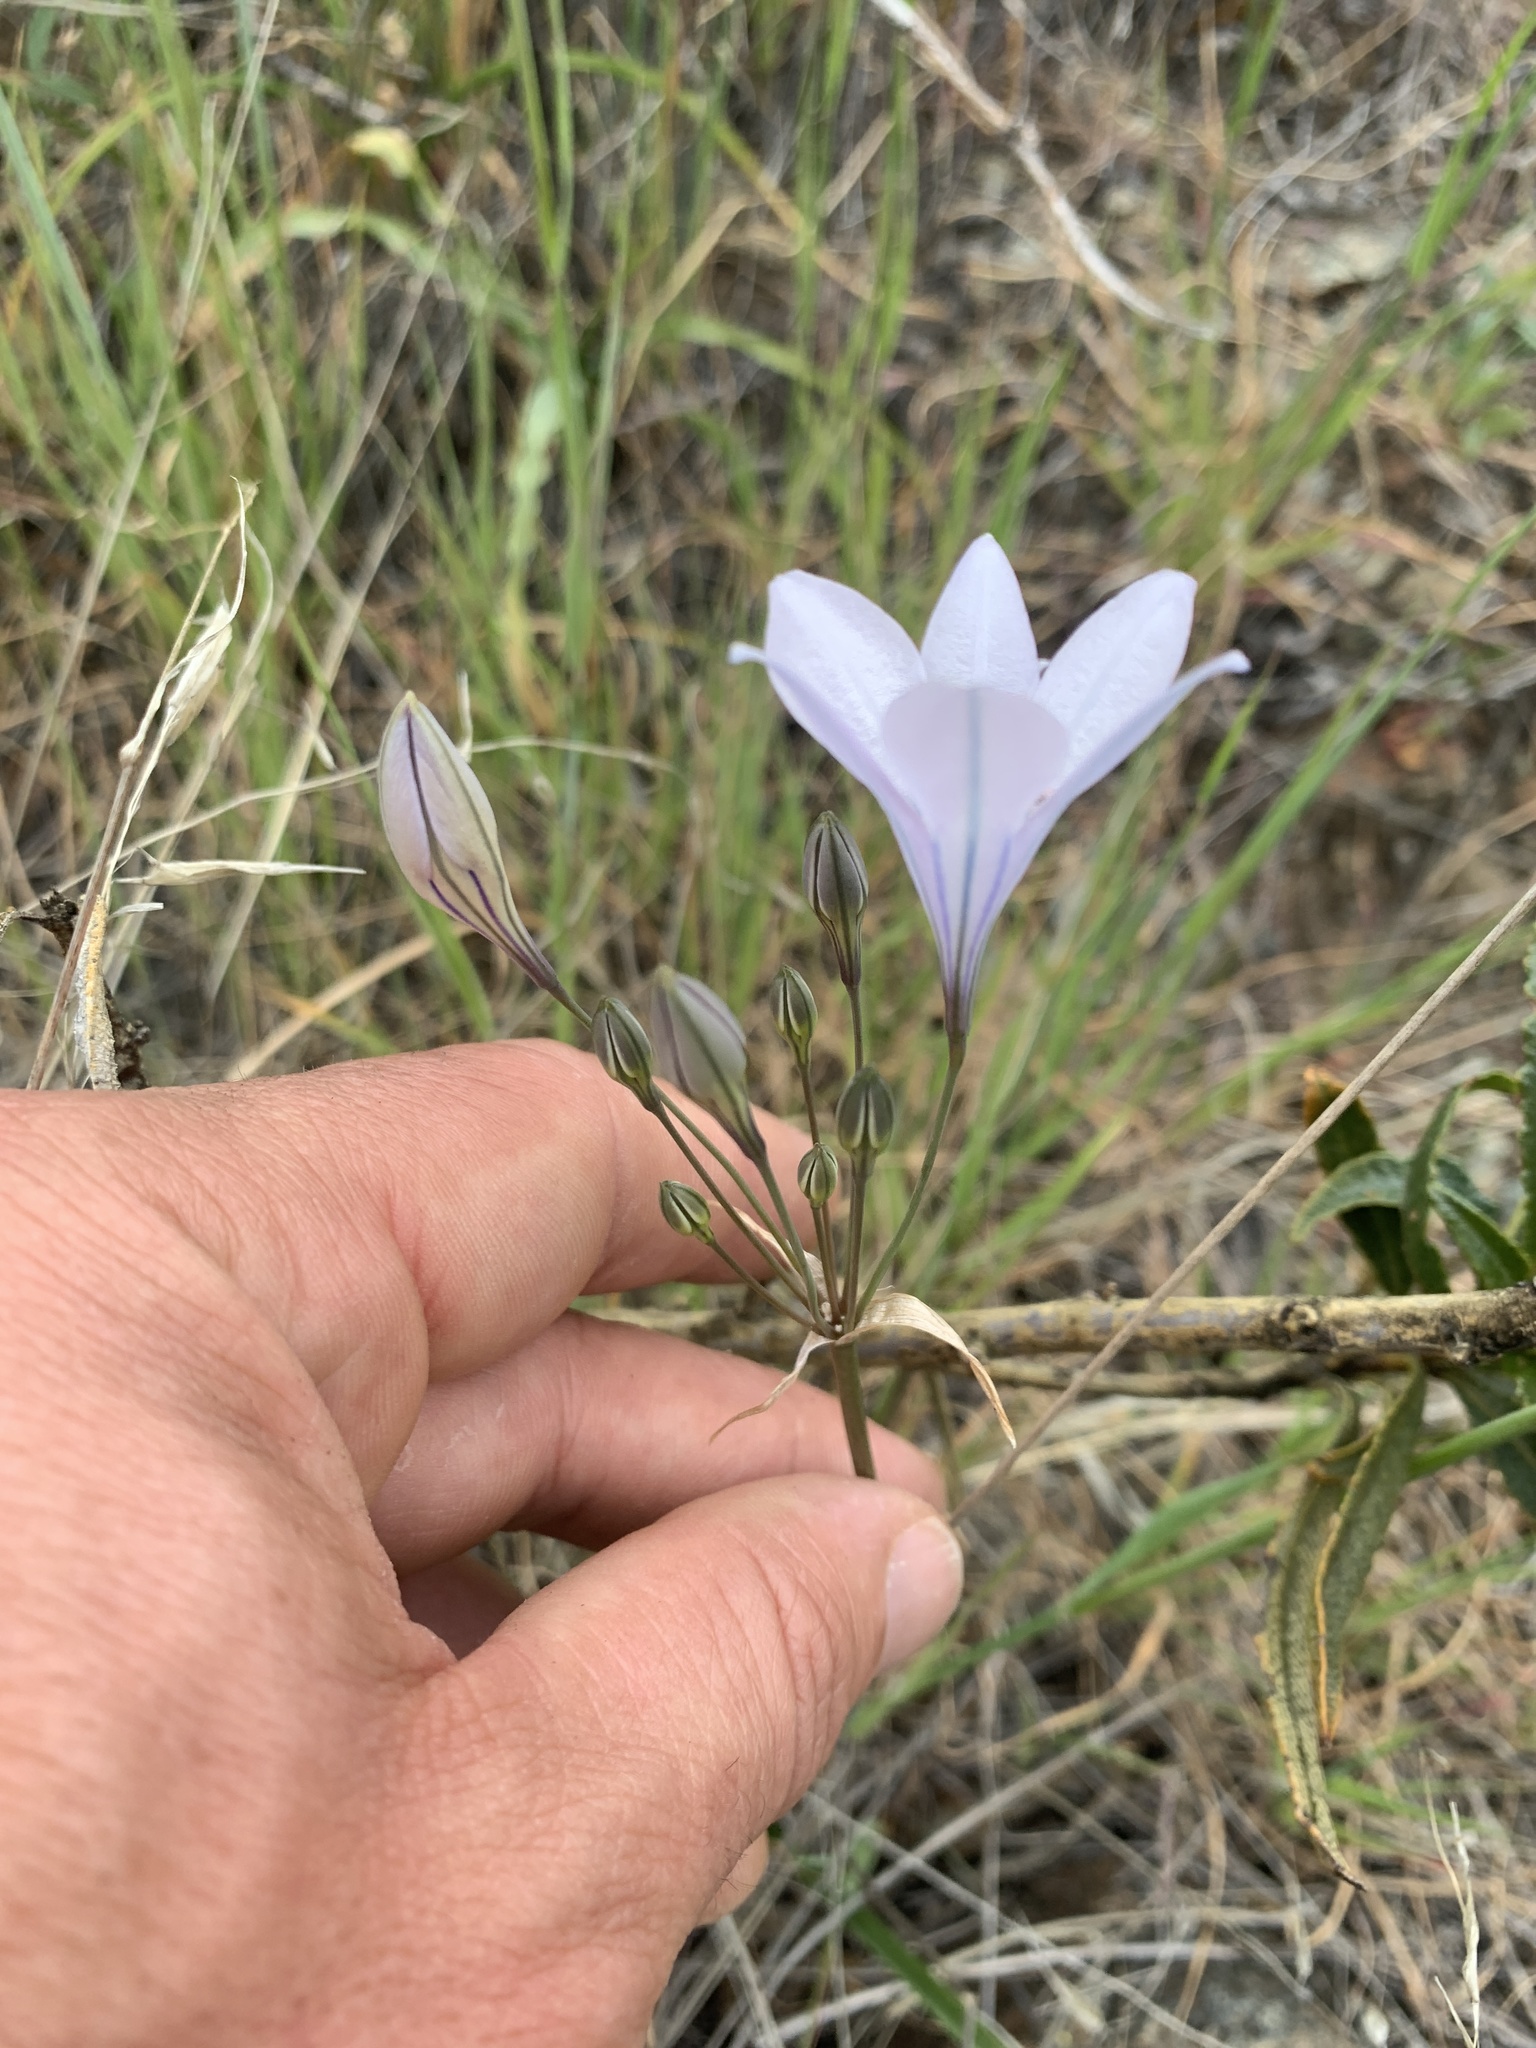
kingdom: Plantae
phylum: Tracheophyta
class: Liliopsida
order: Asparagales
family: Asparagaceae
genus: Triteleia
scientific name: Triteleia peduncularis
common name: Long-ray brodiaea
